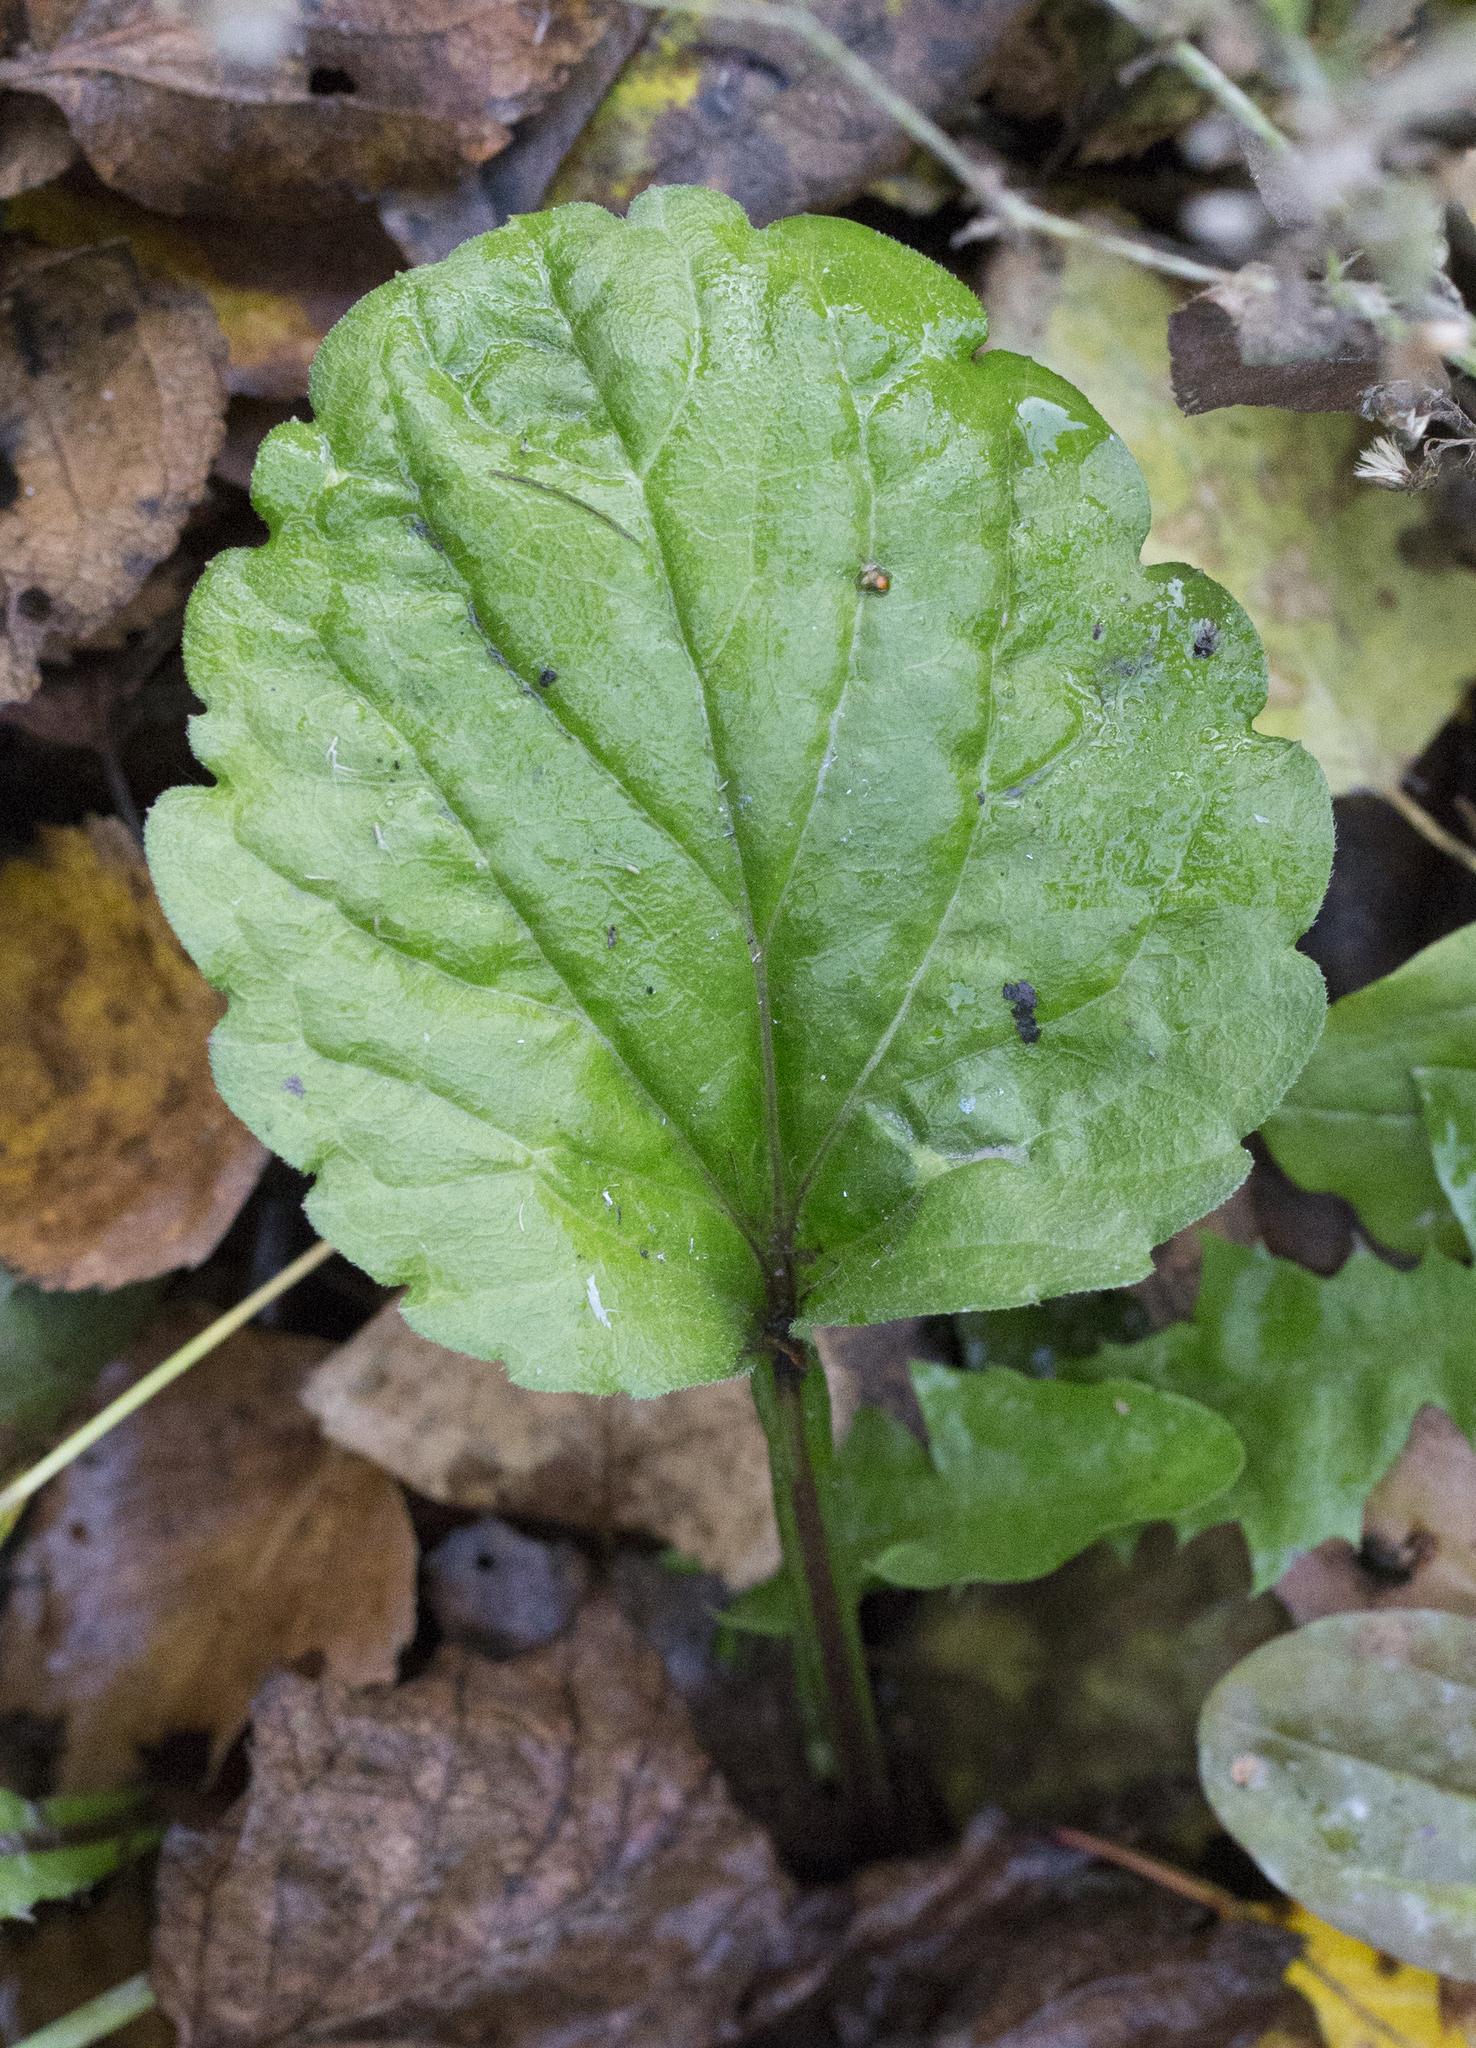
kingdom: Plantae
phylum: Tracheophyta
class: Magnoliopsida
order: Asterales
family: Asteraceae
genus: Erigeron
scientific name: Erigeron annuus
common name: Tall fleabane
